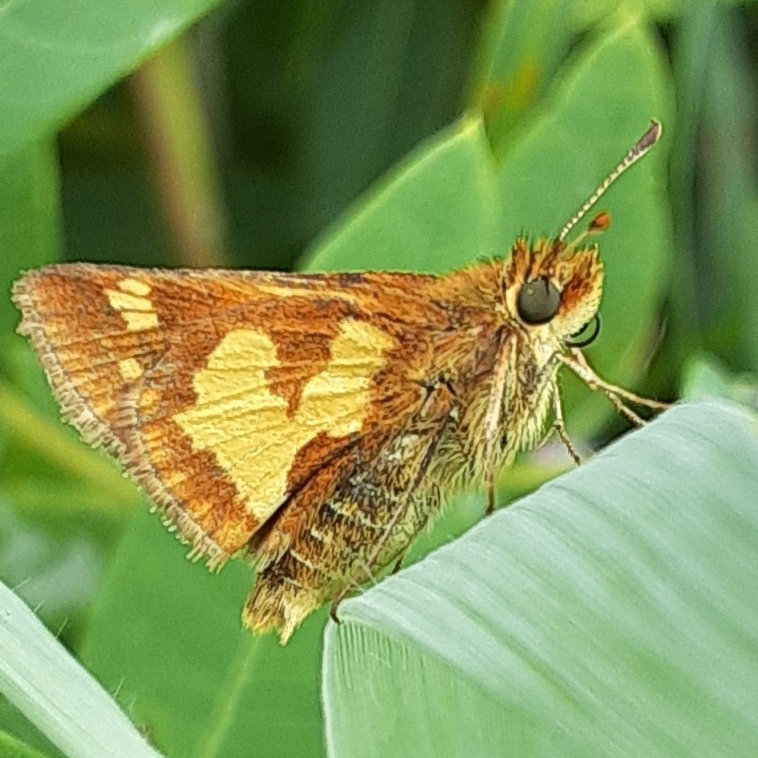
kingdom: Animalia
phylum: Arthropoda
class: Insecta
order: Lepidoptera
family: Hesperiidae
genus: Polites
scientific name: Polites coras
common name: Peck's skipper
